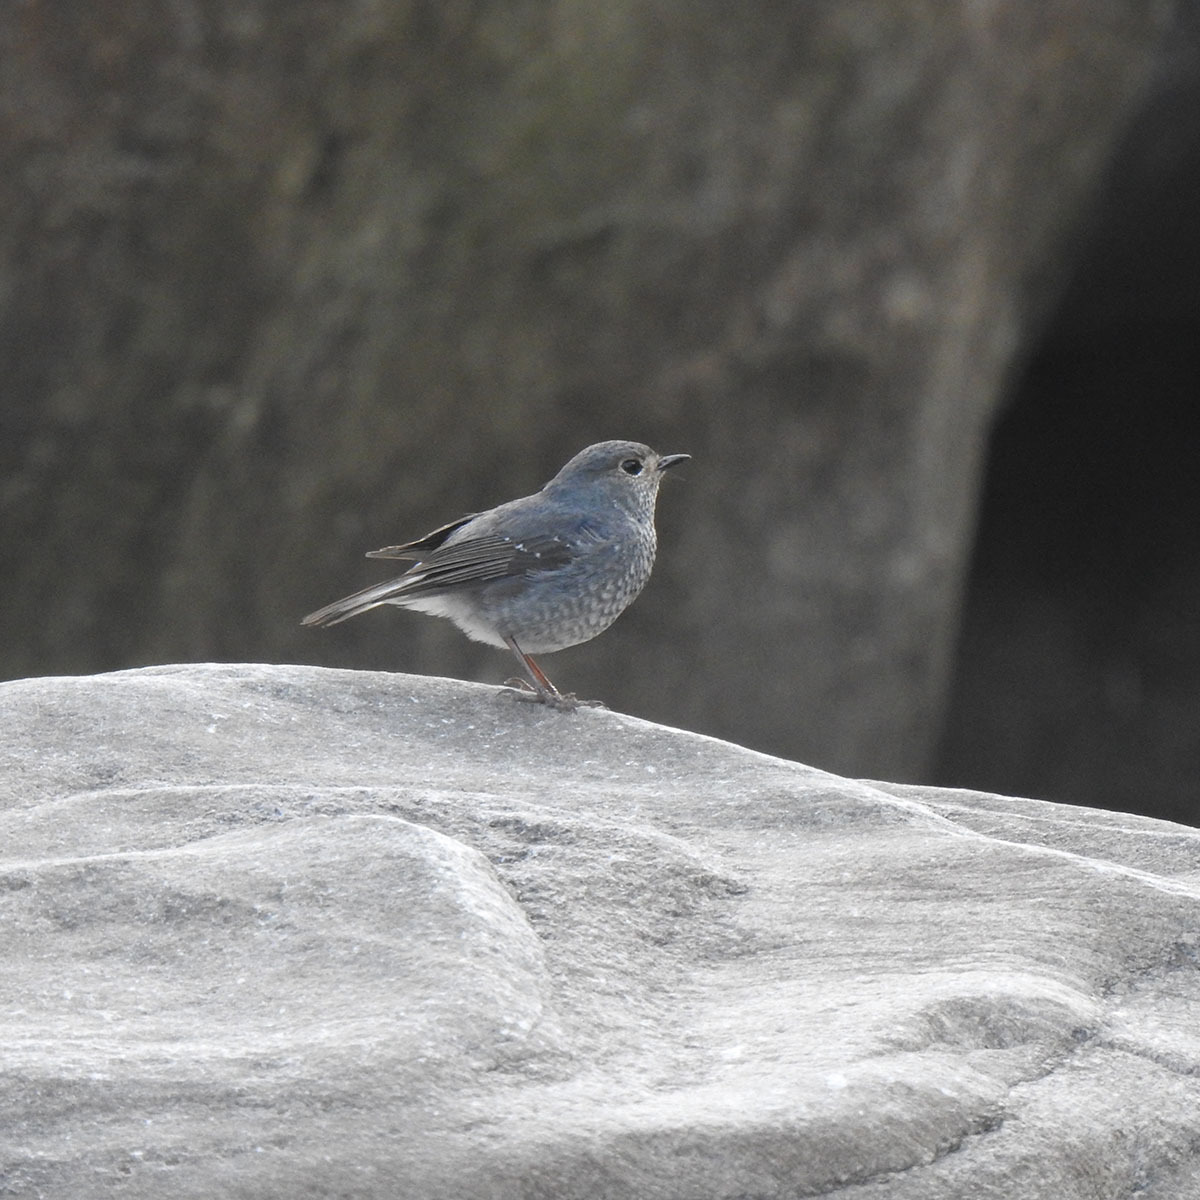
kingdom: Animalia
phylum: Chordata
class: Aves
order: Passeriformes
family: Muscicapidae
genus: Phoenicurus
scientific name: Phoenicurus fuliginosus
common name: Plumbeous water redstart
